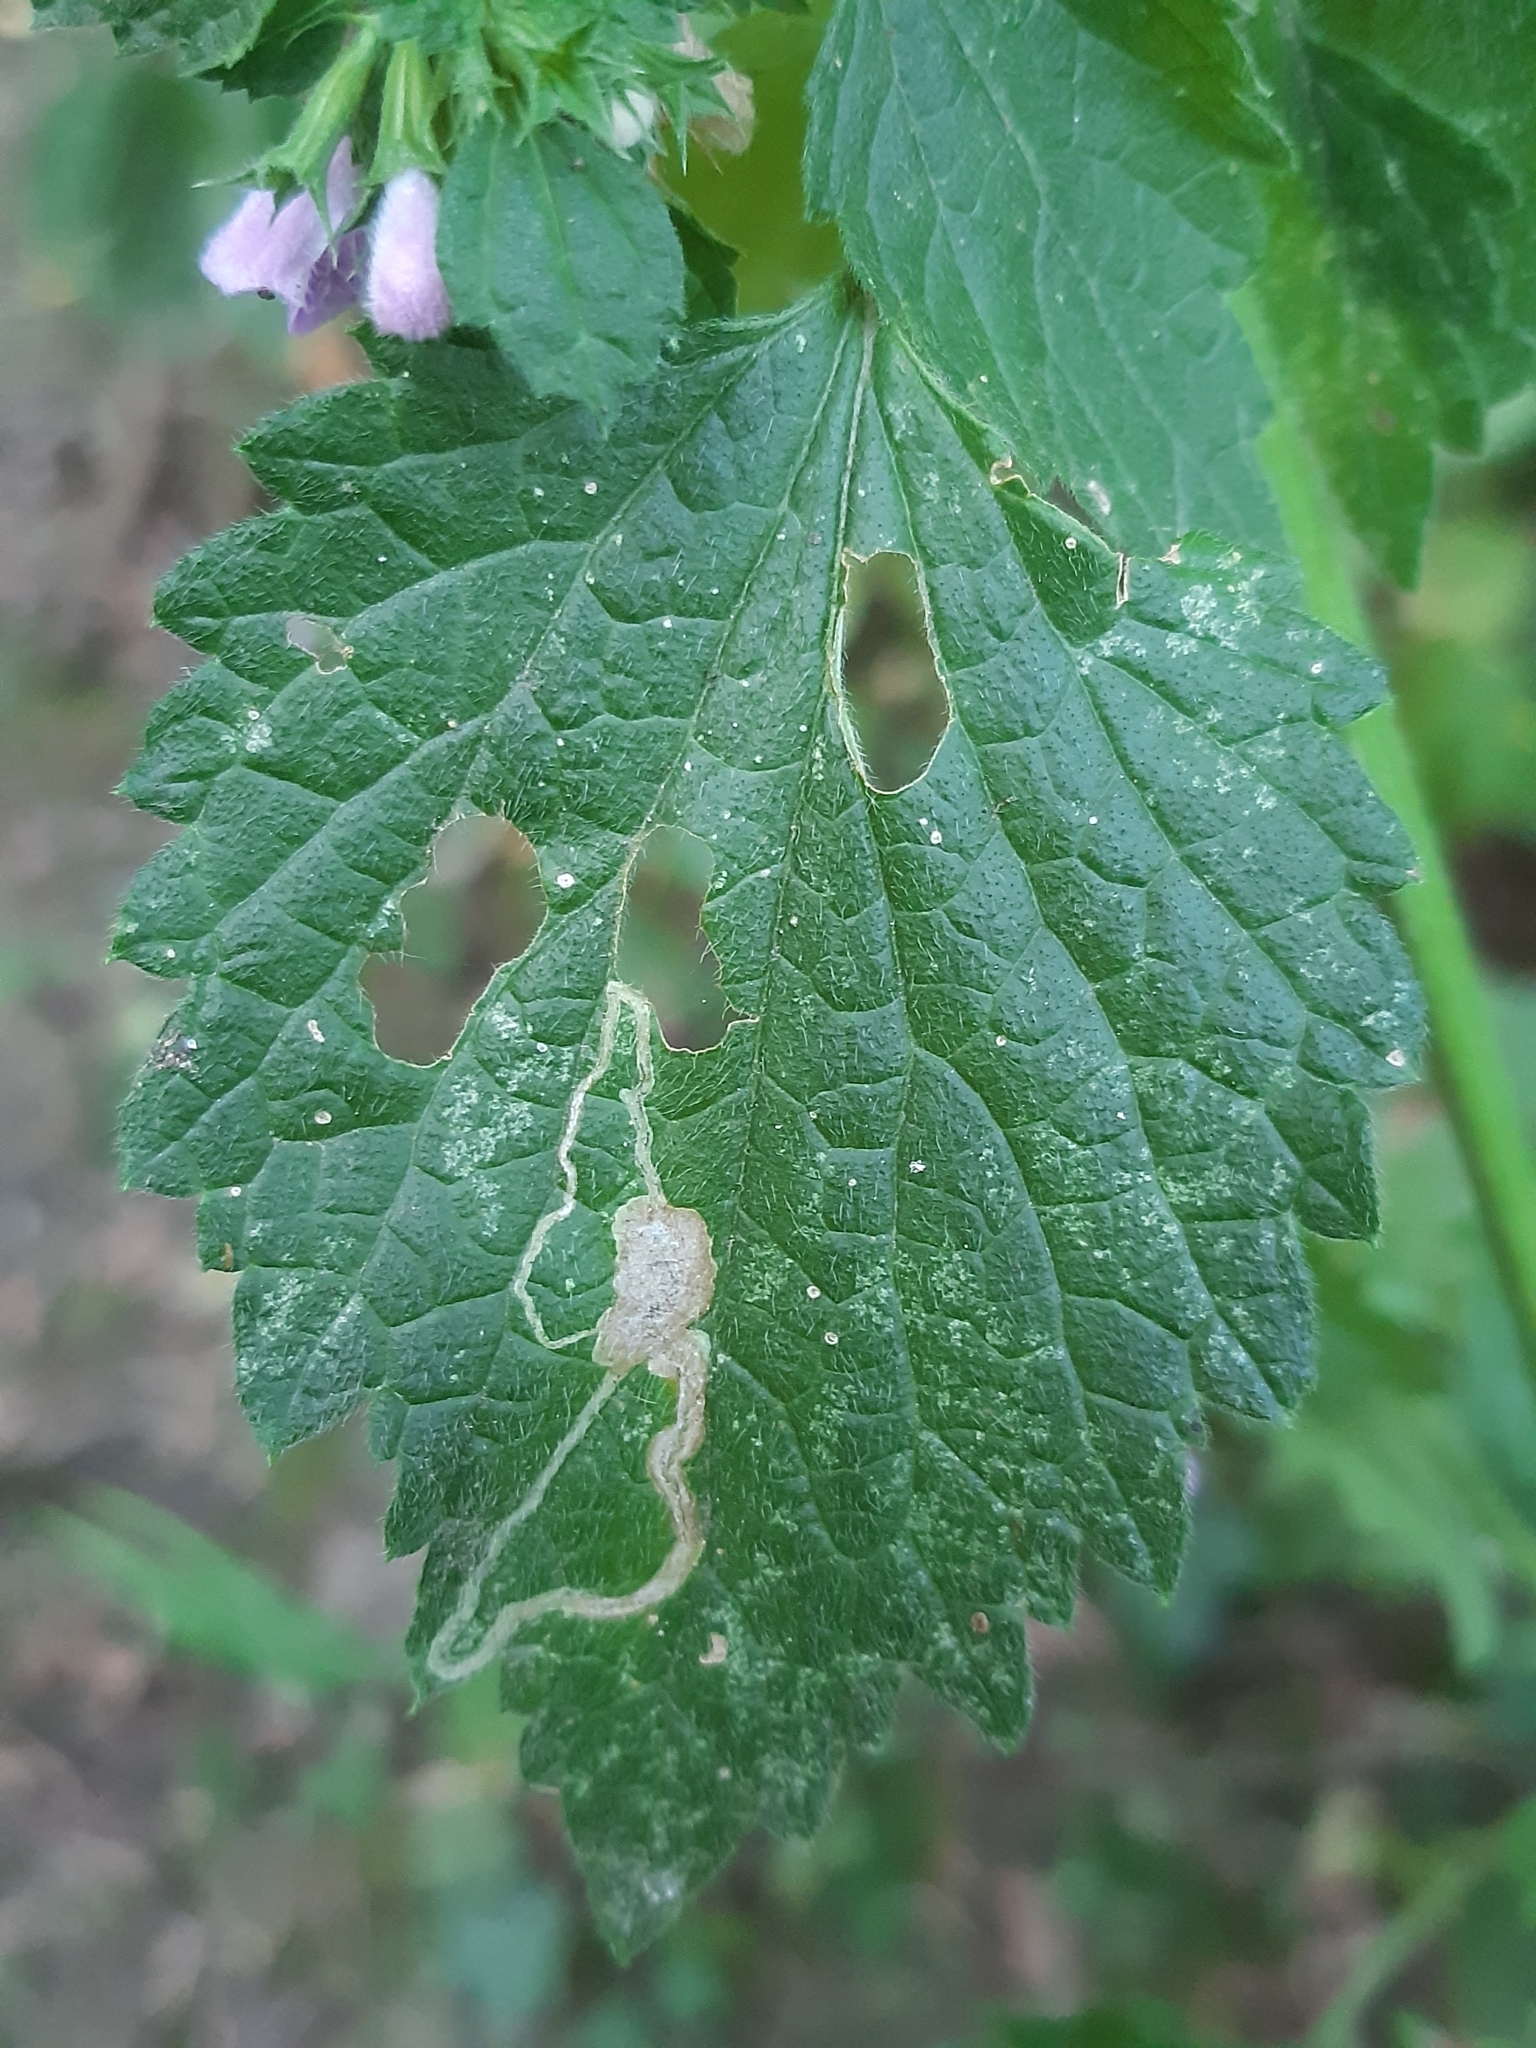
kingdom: Plantae
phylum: Tracheophyta
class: Magnoliopsida
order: Lamiales
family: Lamiaceae
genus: Ballota
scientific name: Ballota nigra
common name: Black horehound
